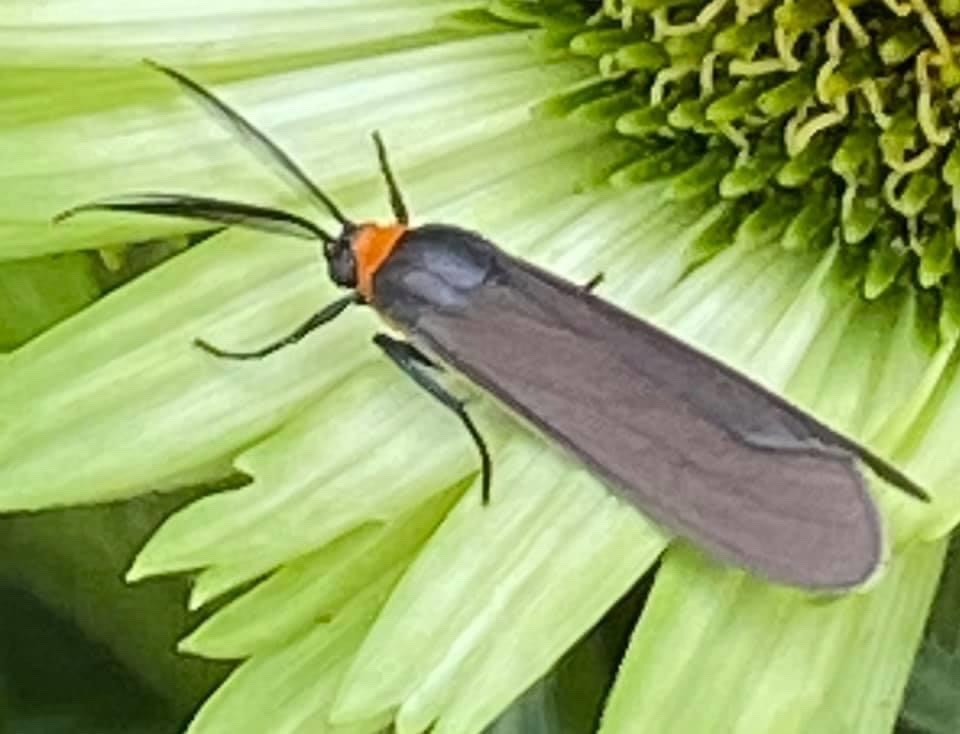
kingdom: Animalia
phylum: Arthropoda
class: Insecta
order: Lepidoptera
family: Erebidae
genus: Cisseps
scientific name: Cisseps fulvicollis
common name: Yellow-collared scape moth
